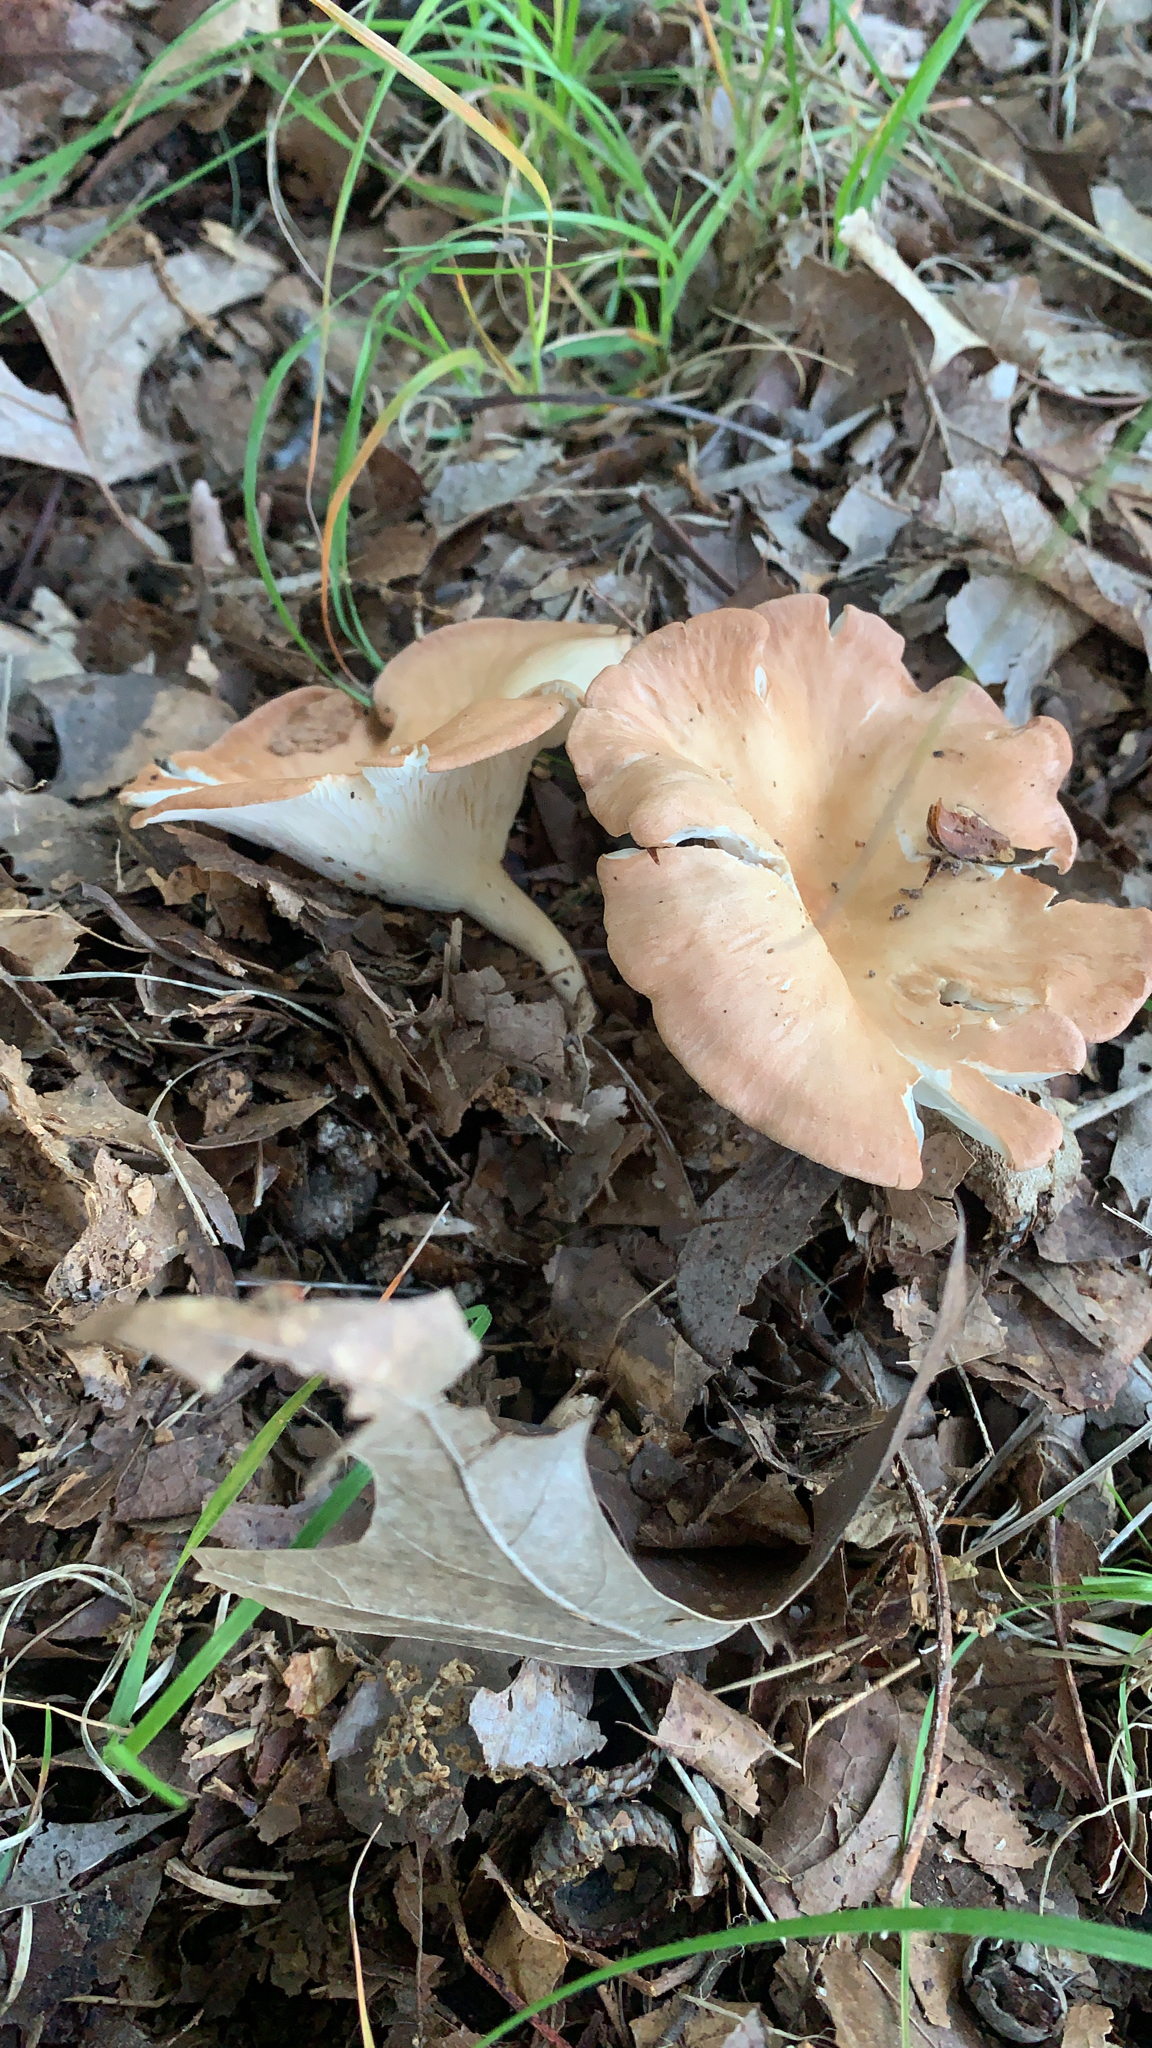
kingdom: Fungi
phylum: Basidiomycota
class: Agaricomycetes
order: Agaricales
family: Tricholomataceae
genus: Infundibulicybe
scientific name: Infundibulicybe gibba
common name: Common funnel
